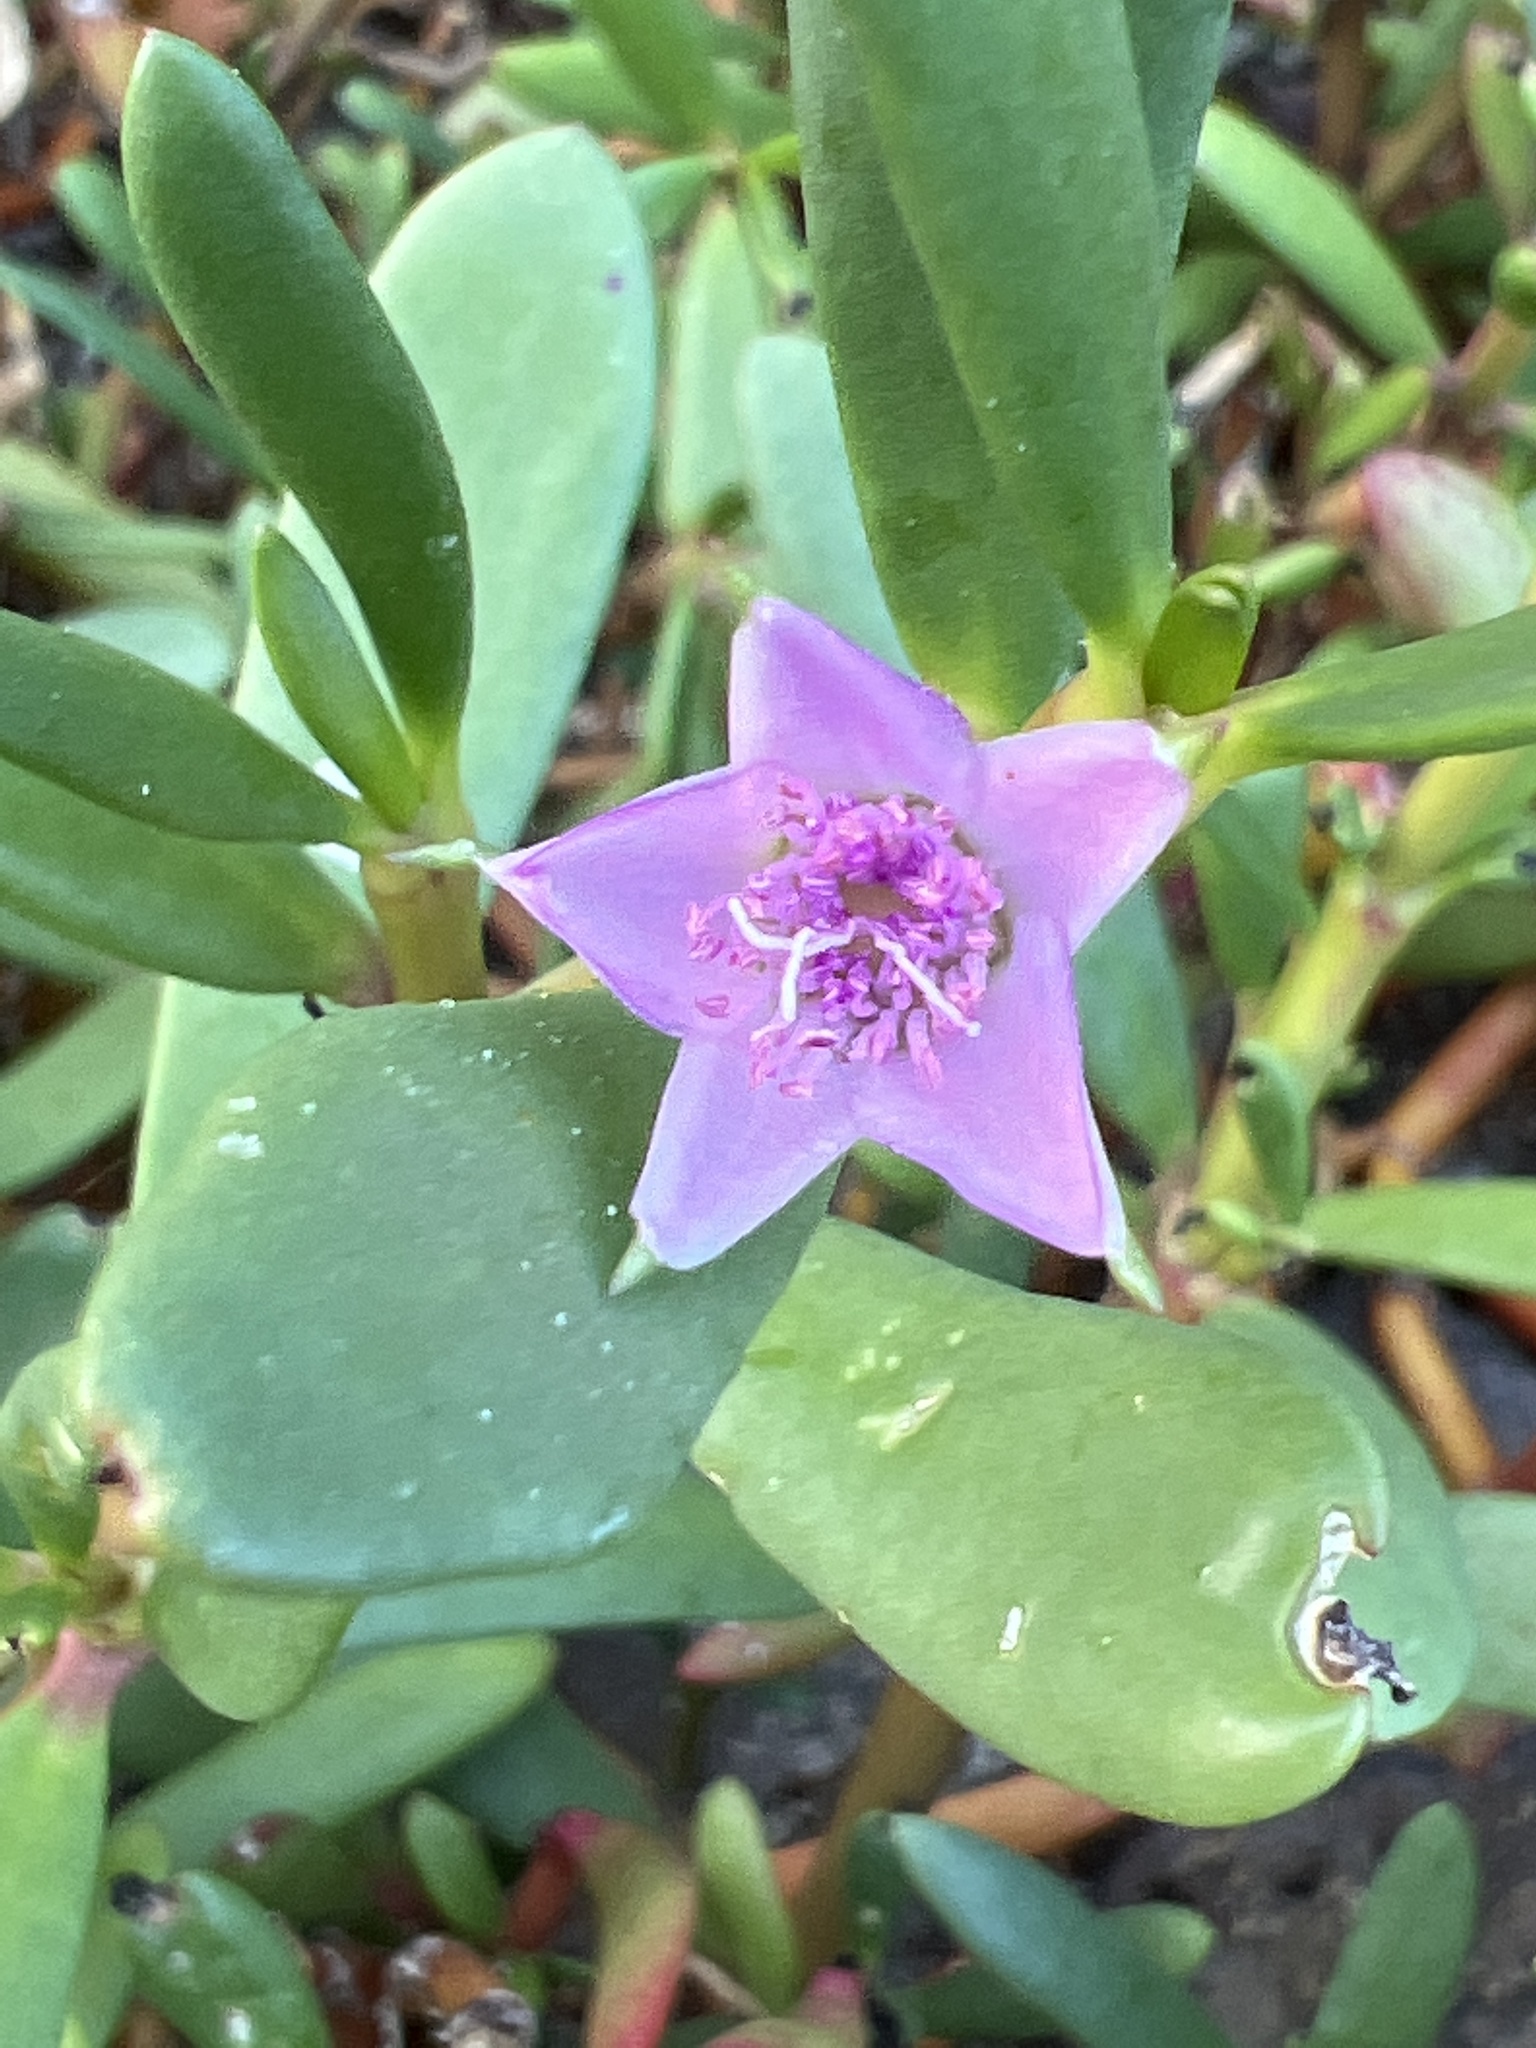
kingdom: Plantae
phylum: Tracheophyta
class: Magnoliopsida
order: Caryophyllales
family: Aizoaceae
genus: Sesuvium
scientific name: Sesuvium portulacastrum
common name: Sea-purslane
